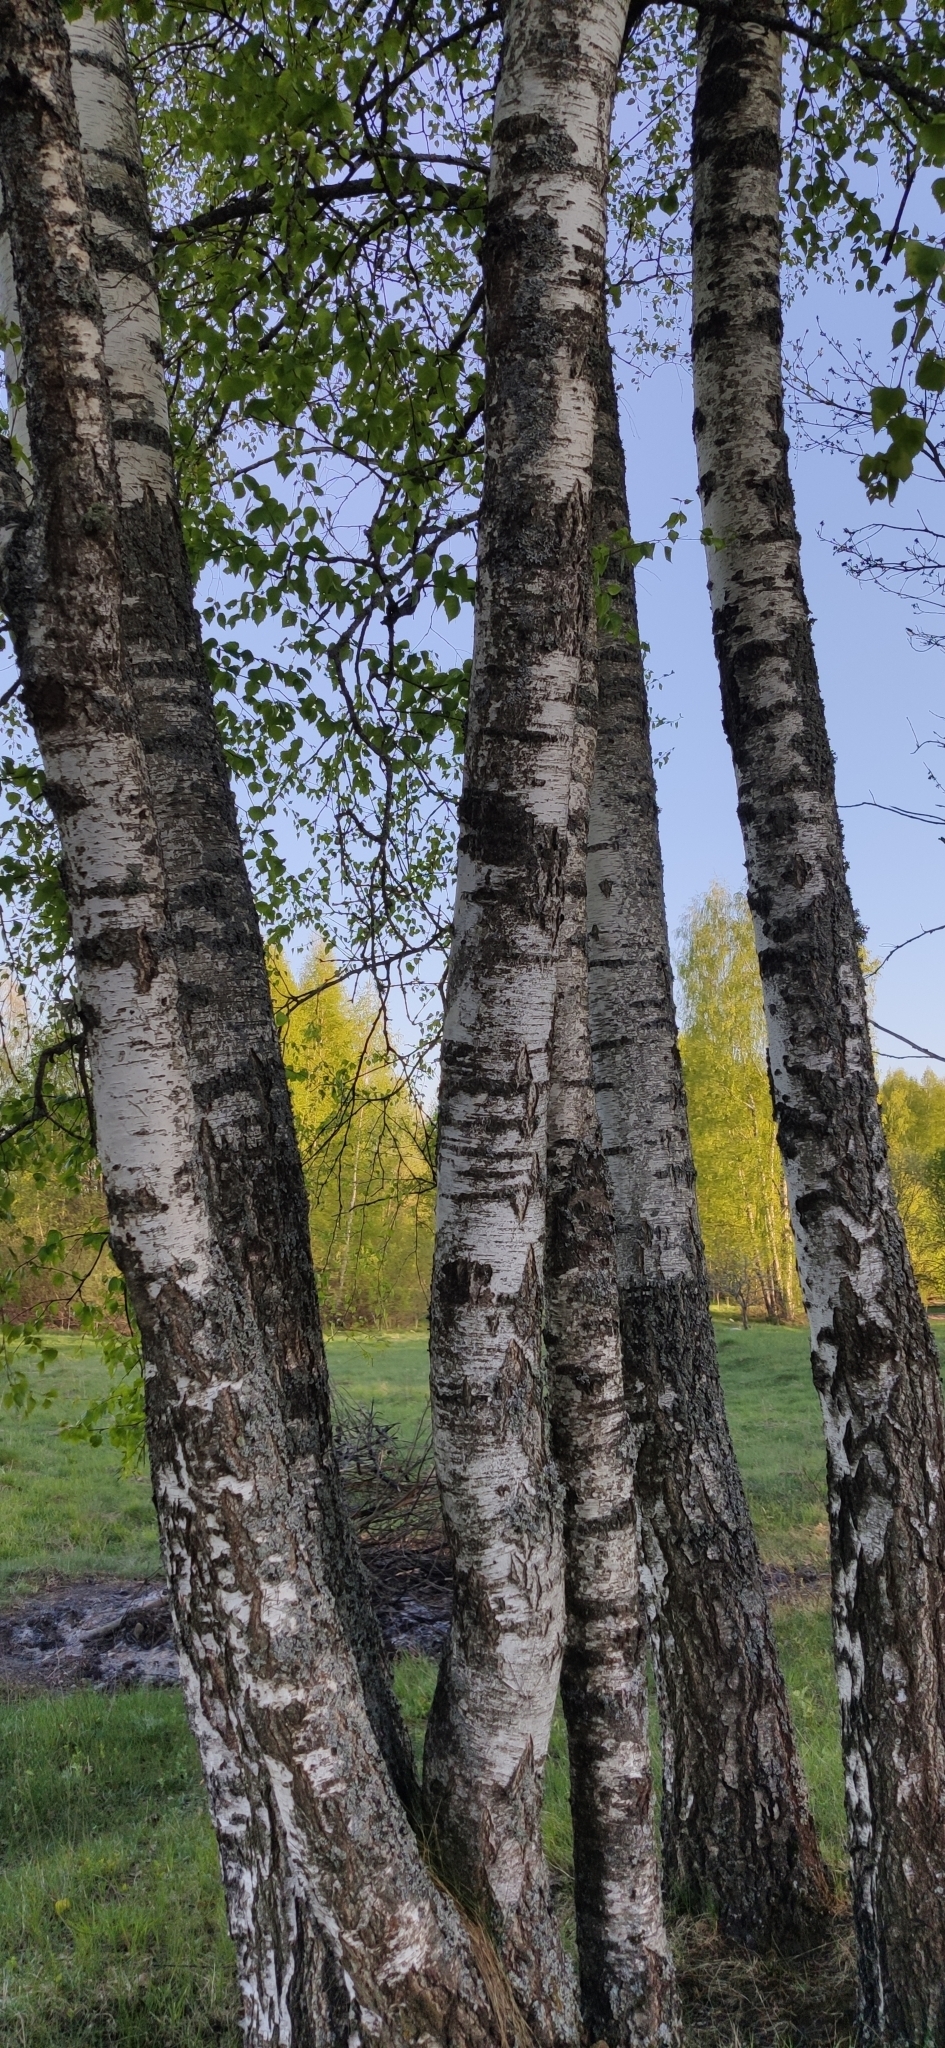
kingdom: Plantae
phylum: Tracheophyta
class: Magnoliopsida
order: Fagales
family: Betulaceae
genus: Betula
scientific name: Betula pendula
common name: Silver birch
